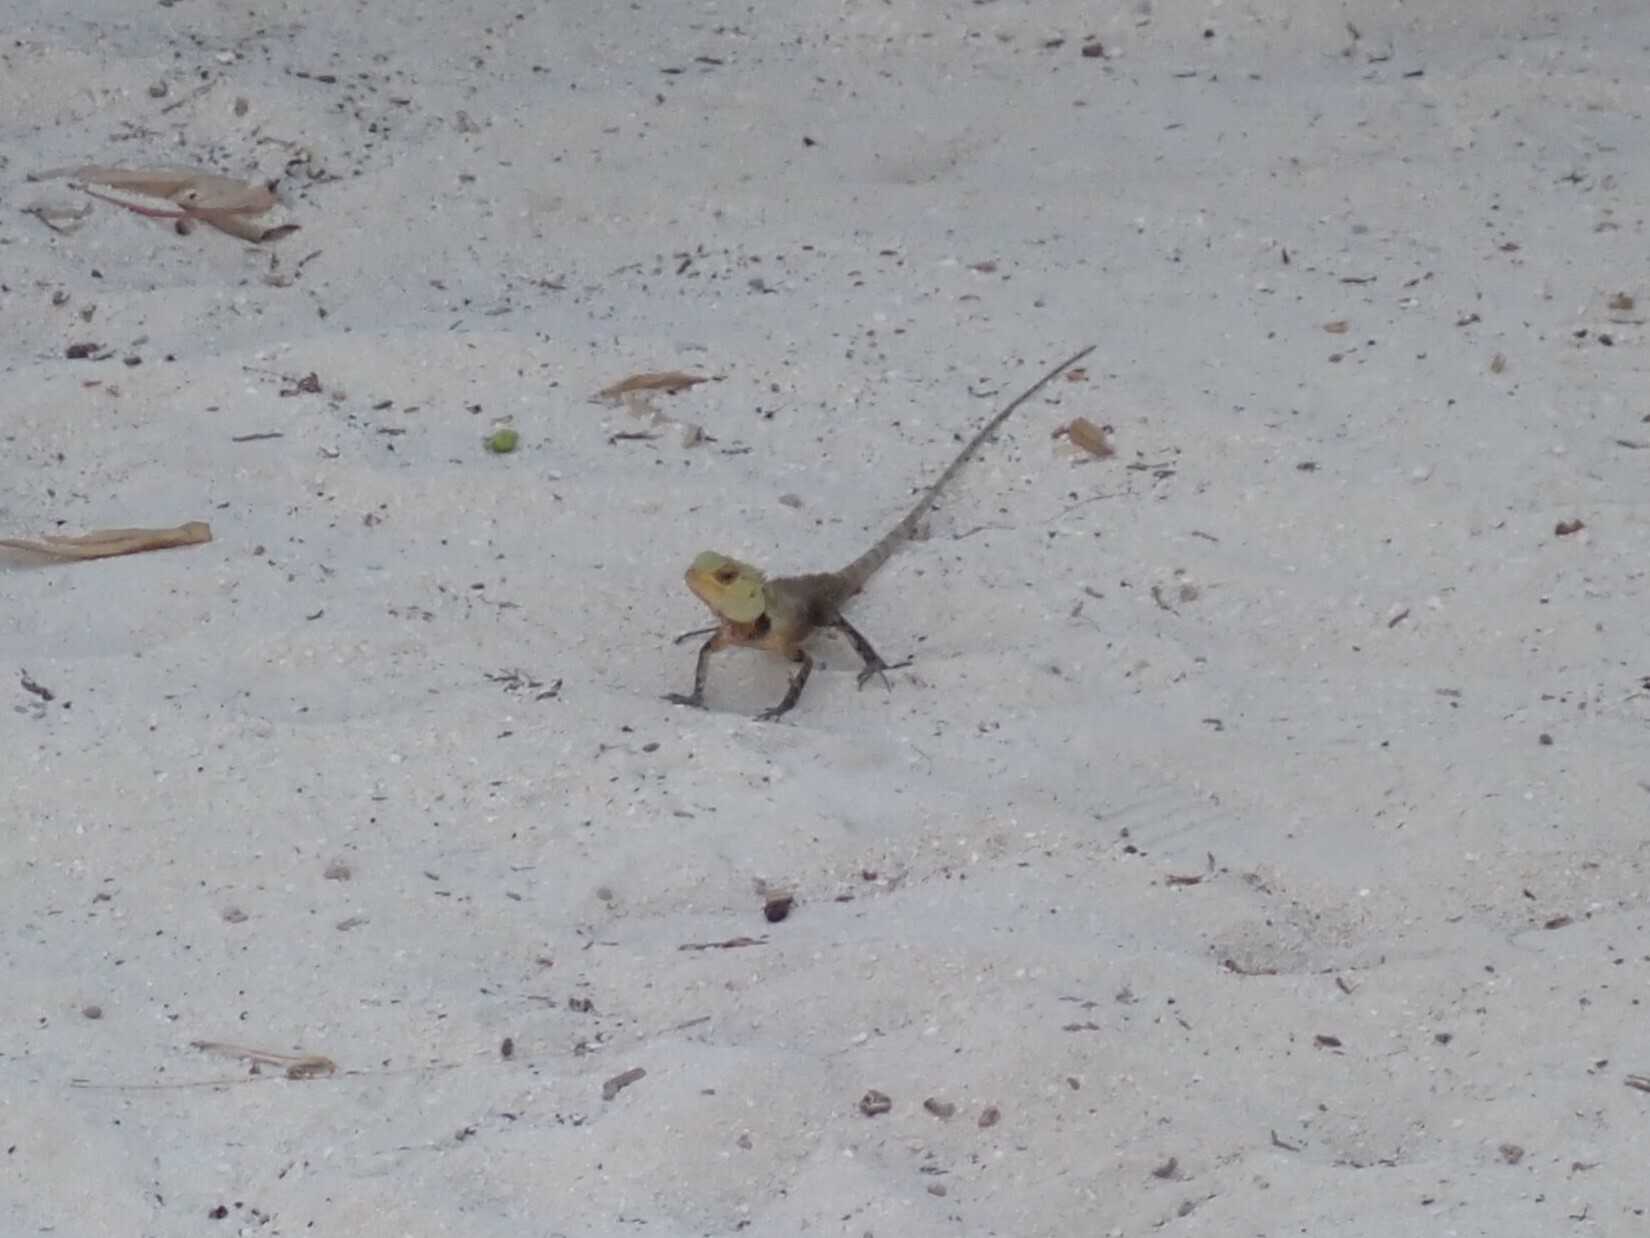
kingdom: Animalia
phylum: Chordata
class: Squamata
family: Agamidae
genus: Calotes
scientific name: Calotes versicolor
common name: Oriental garden lizard
